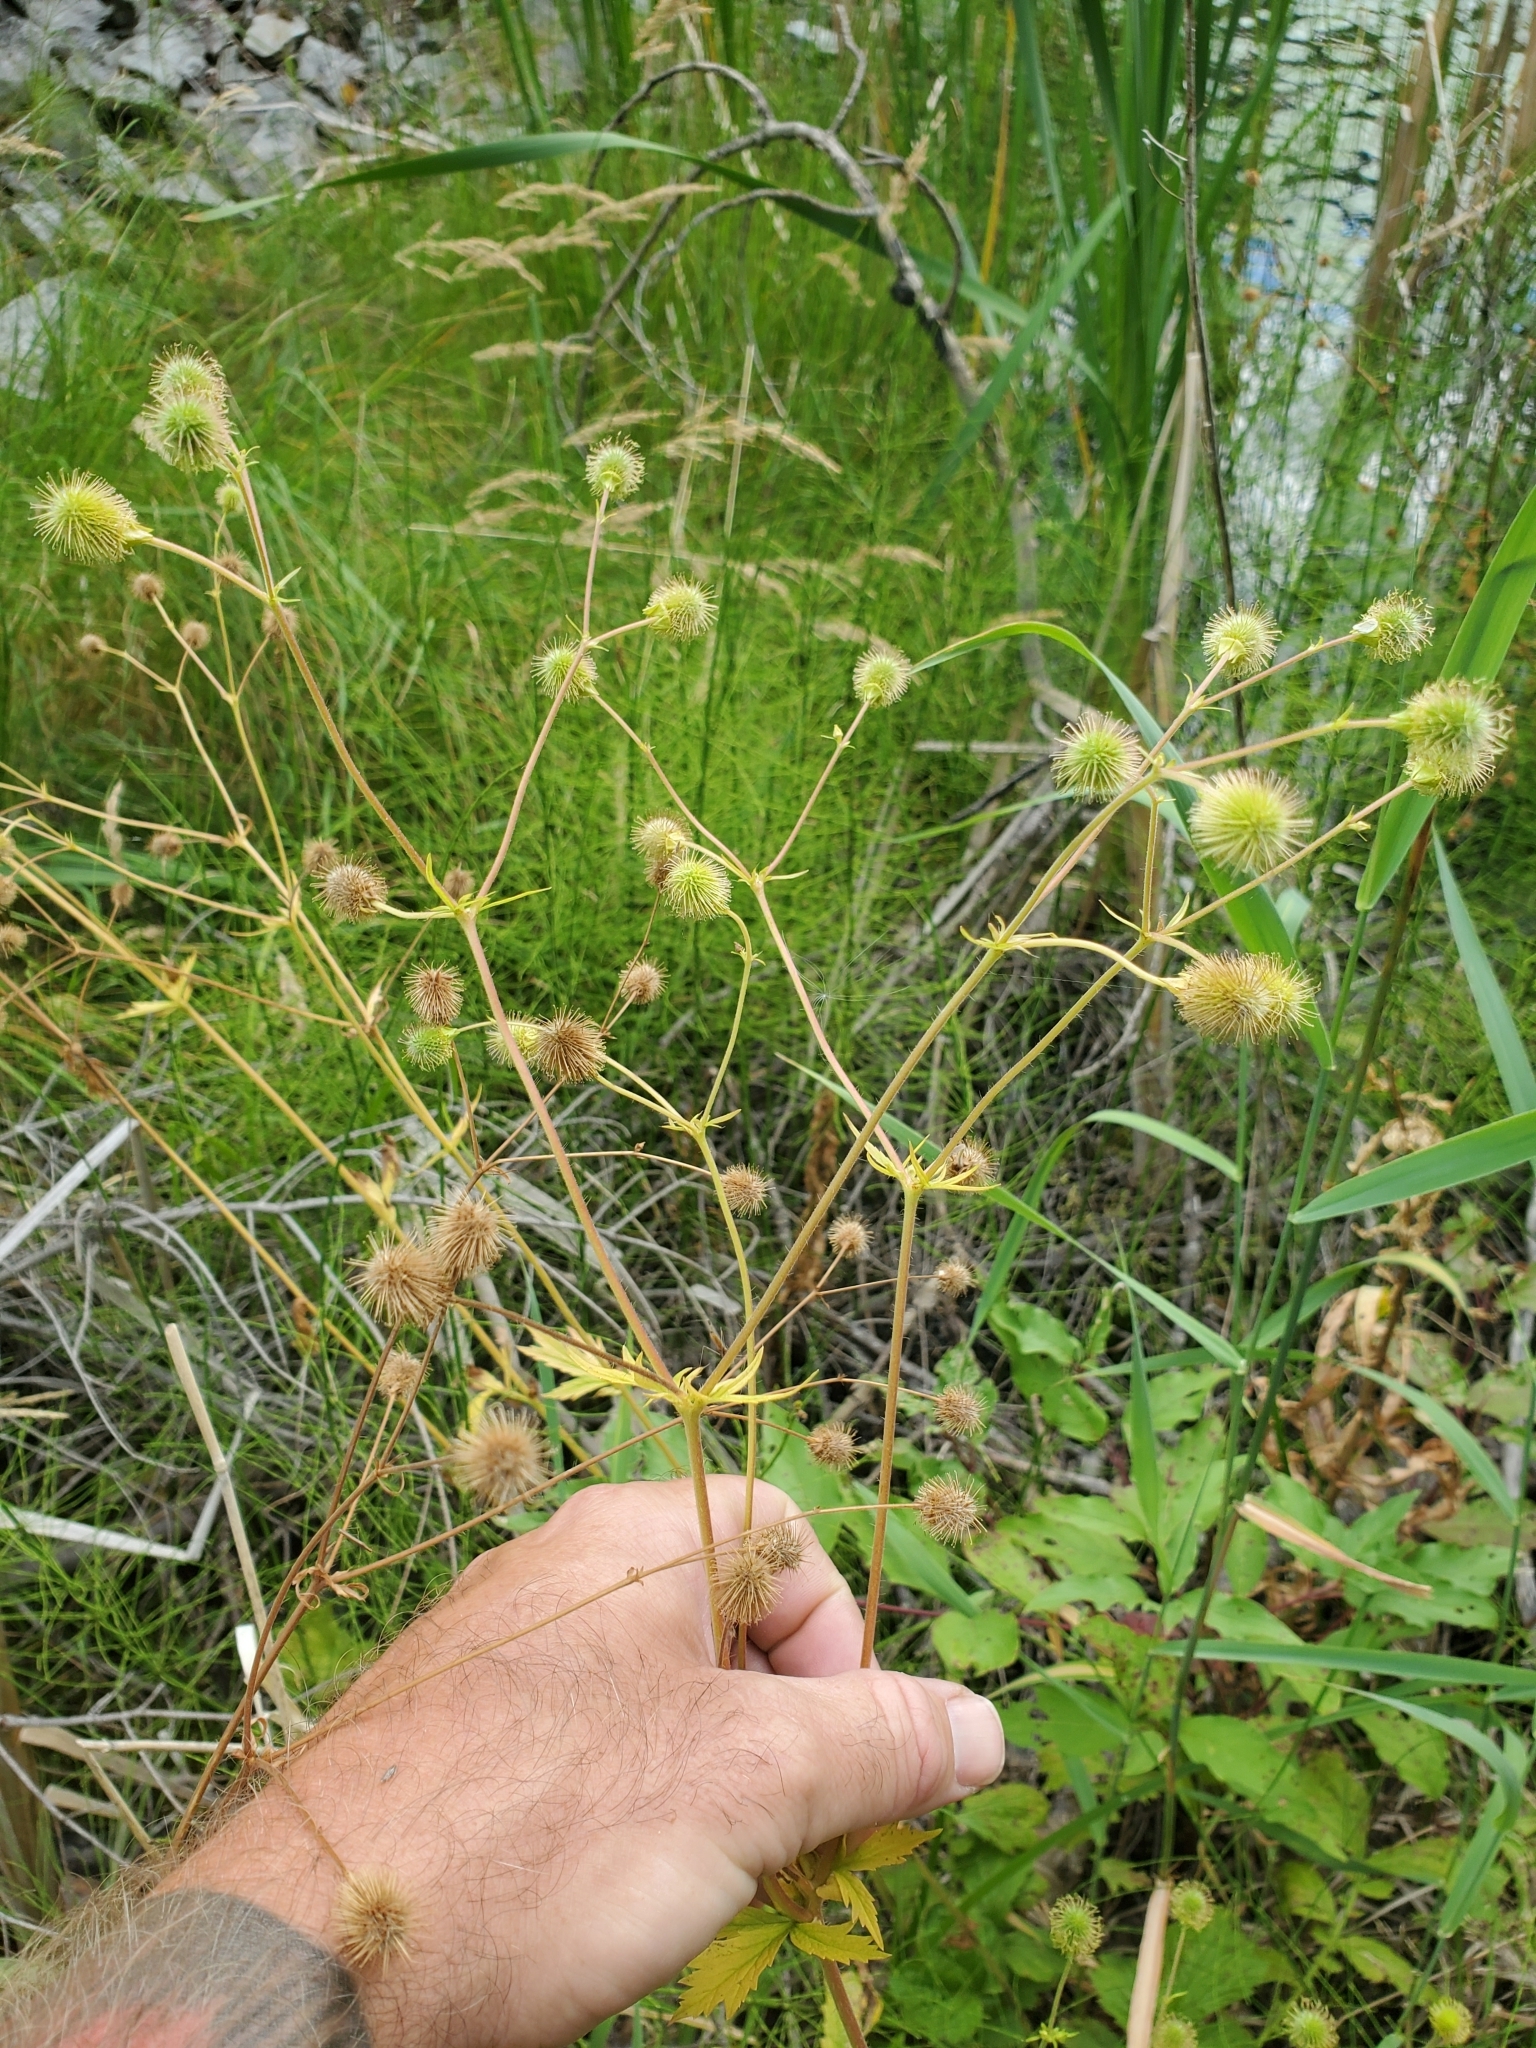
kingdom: Plantae
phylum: Tracheophyta
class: Magnoliopsida
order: Rosales
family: Rosaceae
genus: Geum
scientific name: Geum macrophyllum
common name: Large-leaved avens
